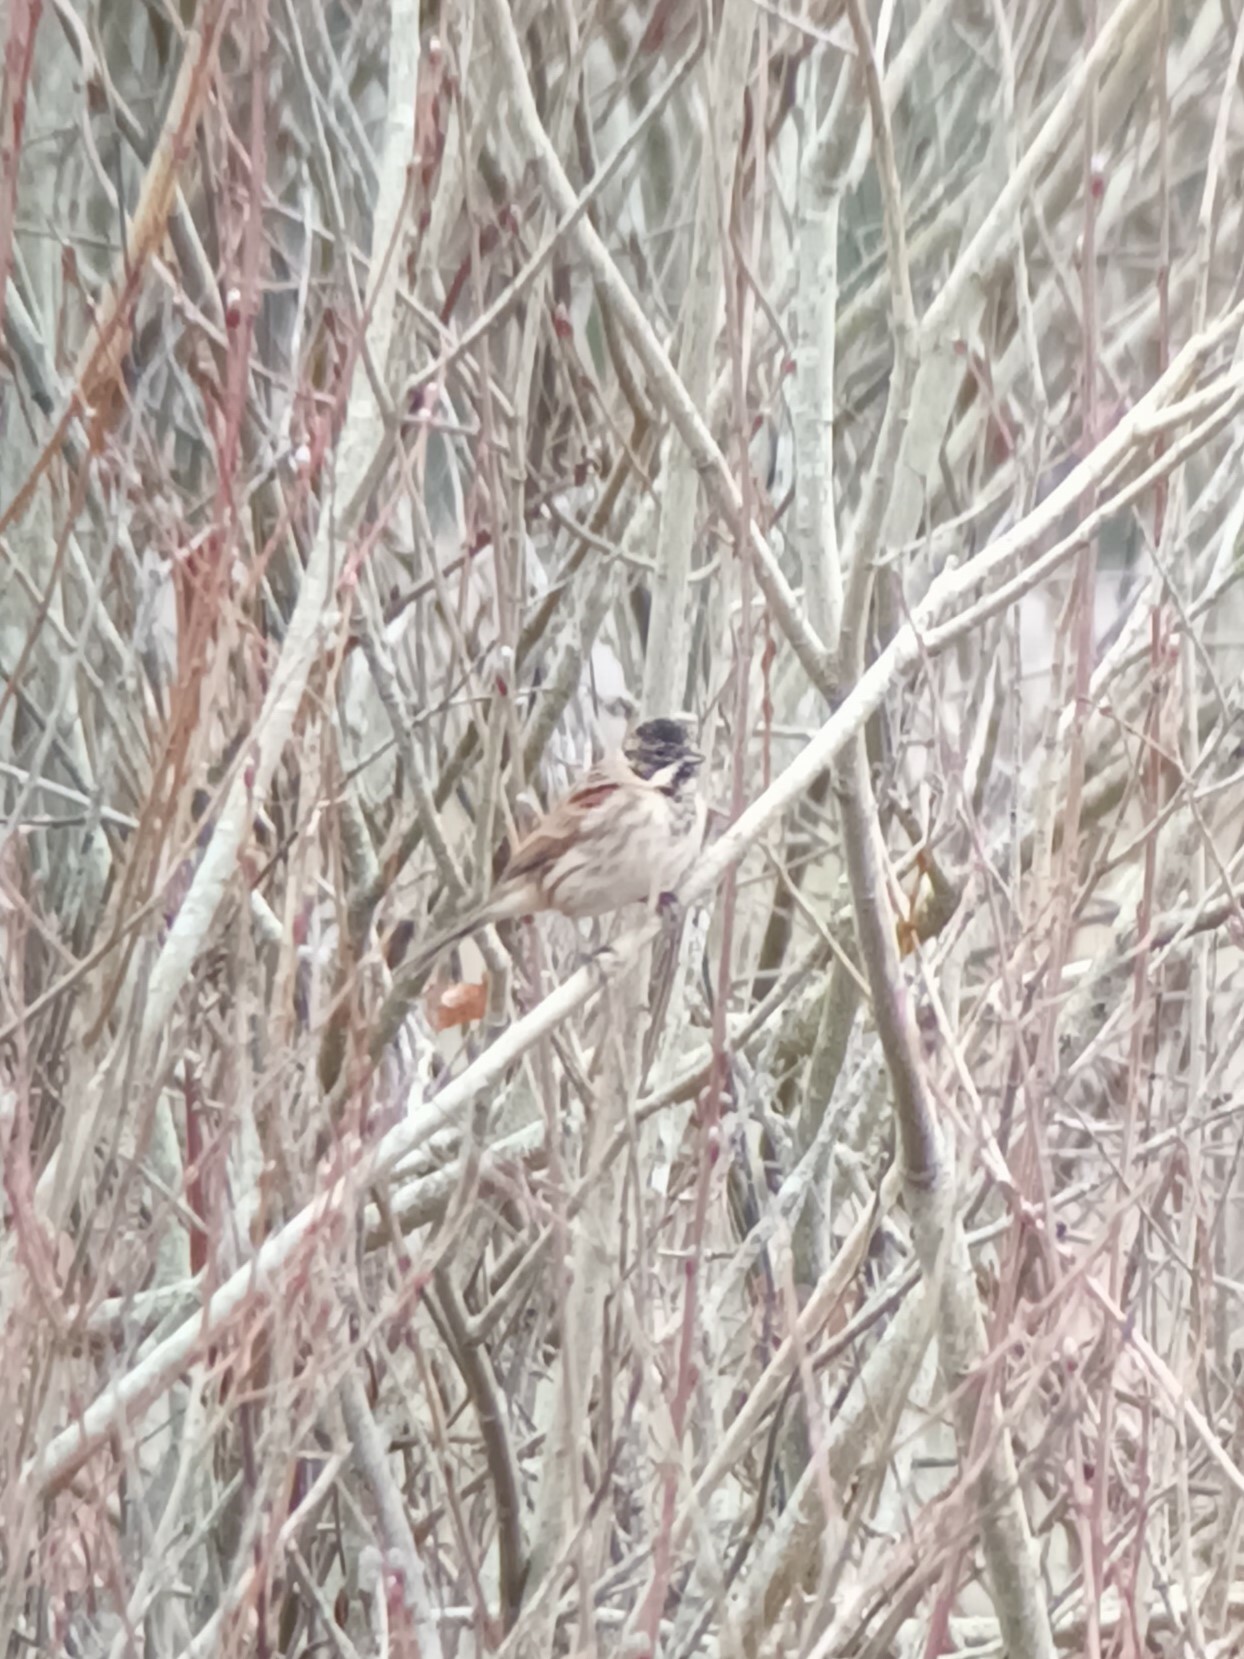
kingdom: Animalia
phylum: Chordata
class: Aves
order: Passeriformes
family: Emberizidae
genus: Emberiza
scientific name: Emberiza schoeniclus
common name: Reed bunting
